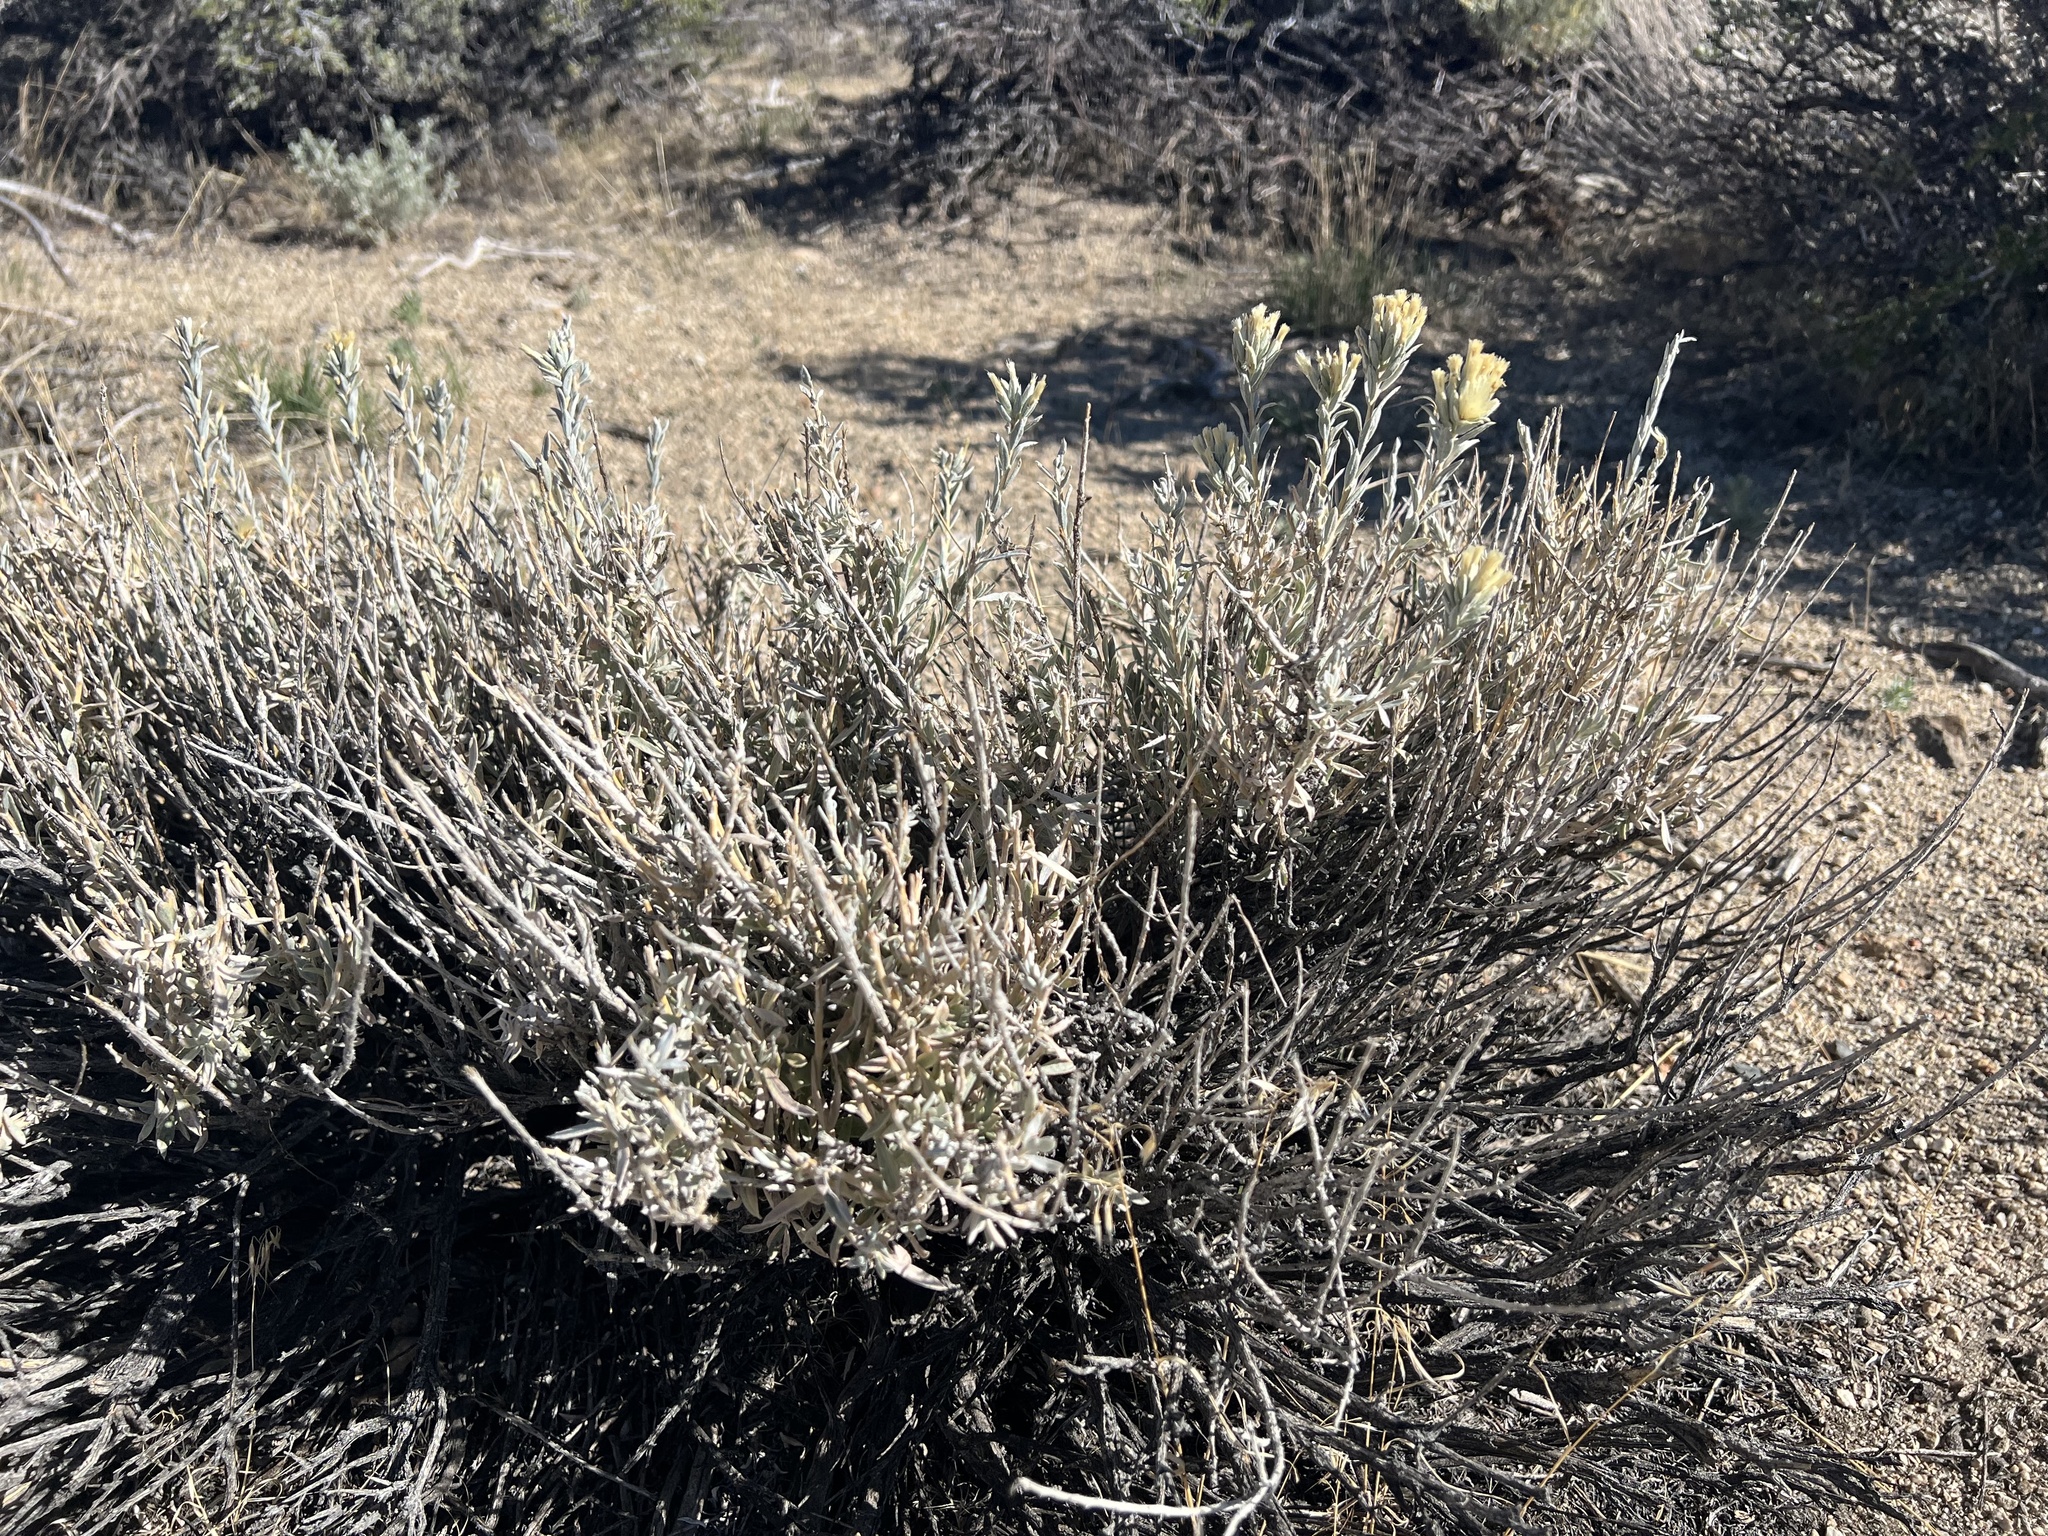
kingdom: Plantae
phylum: Tracheophyta
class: Magnoliopsida
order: Asterales
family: Asteraceae
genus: Tetradymia
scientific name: Tetradymia canescens
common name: Spineless horsebrush
